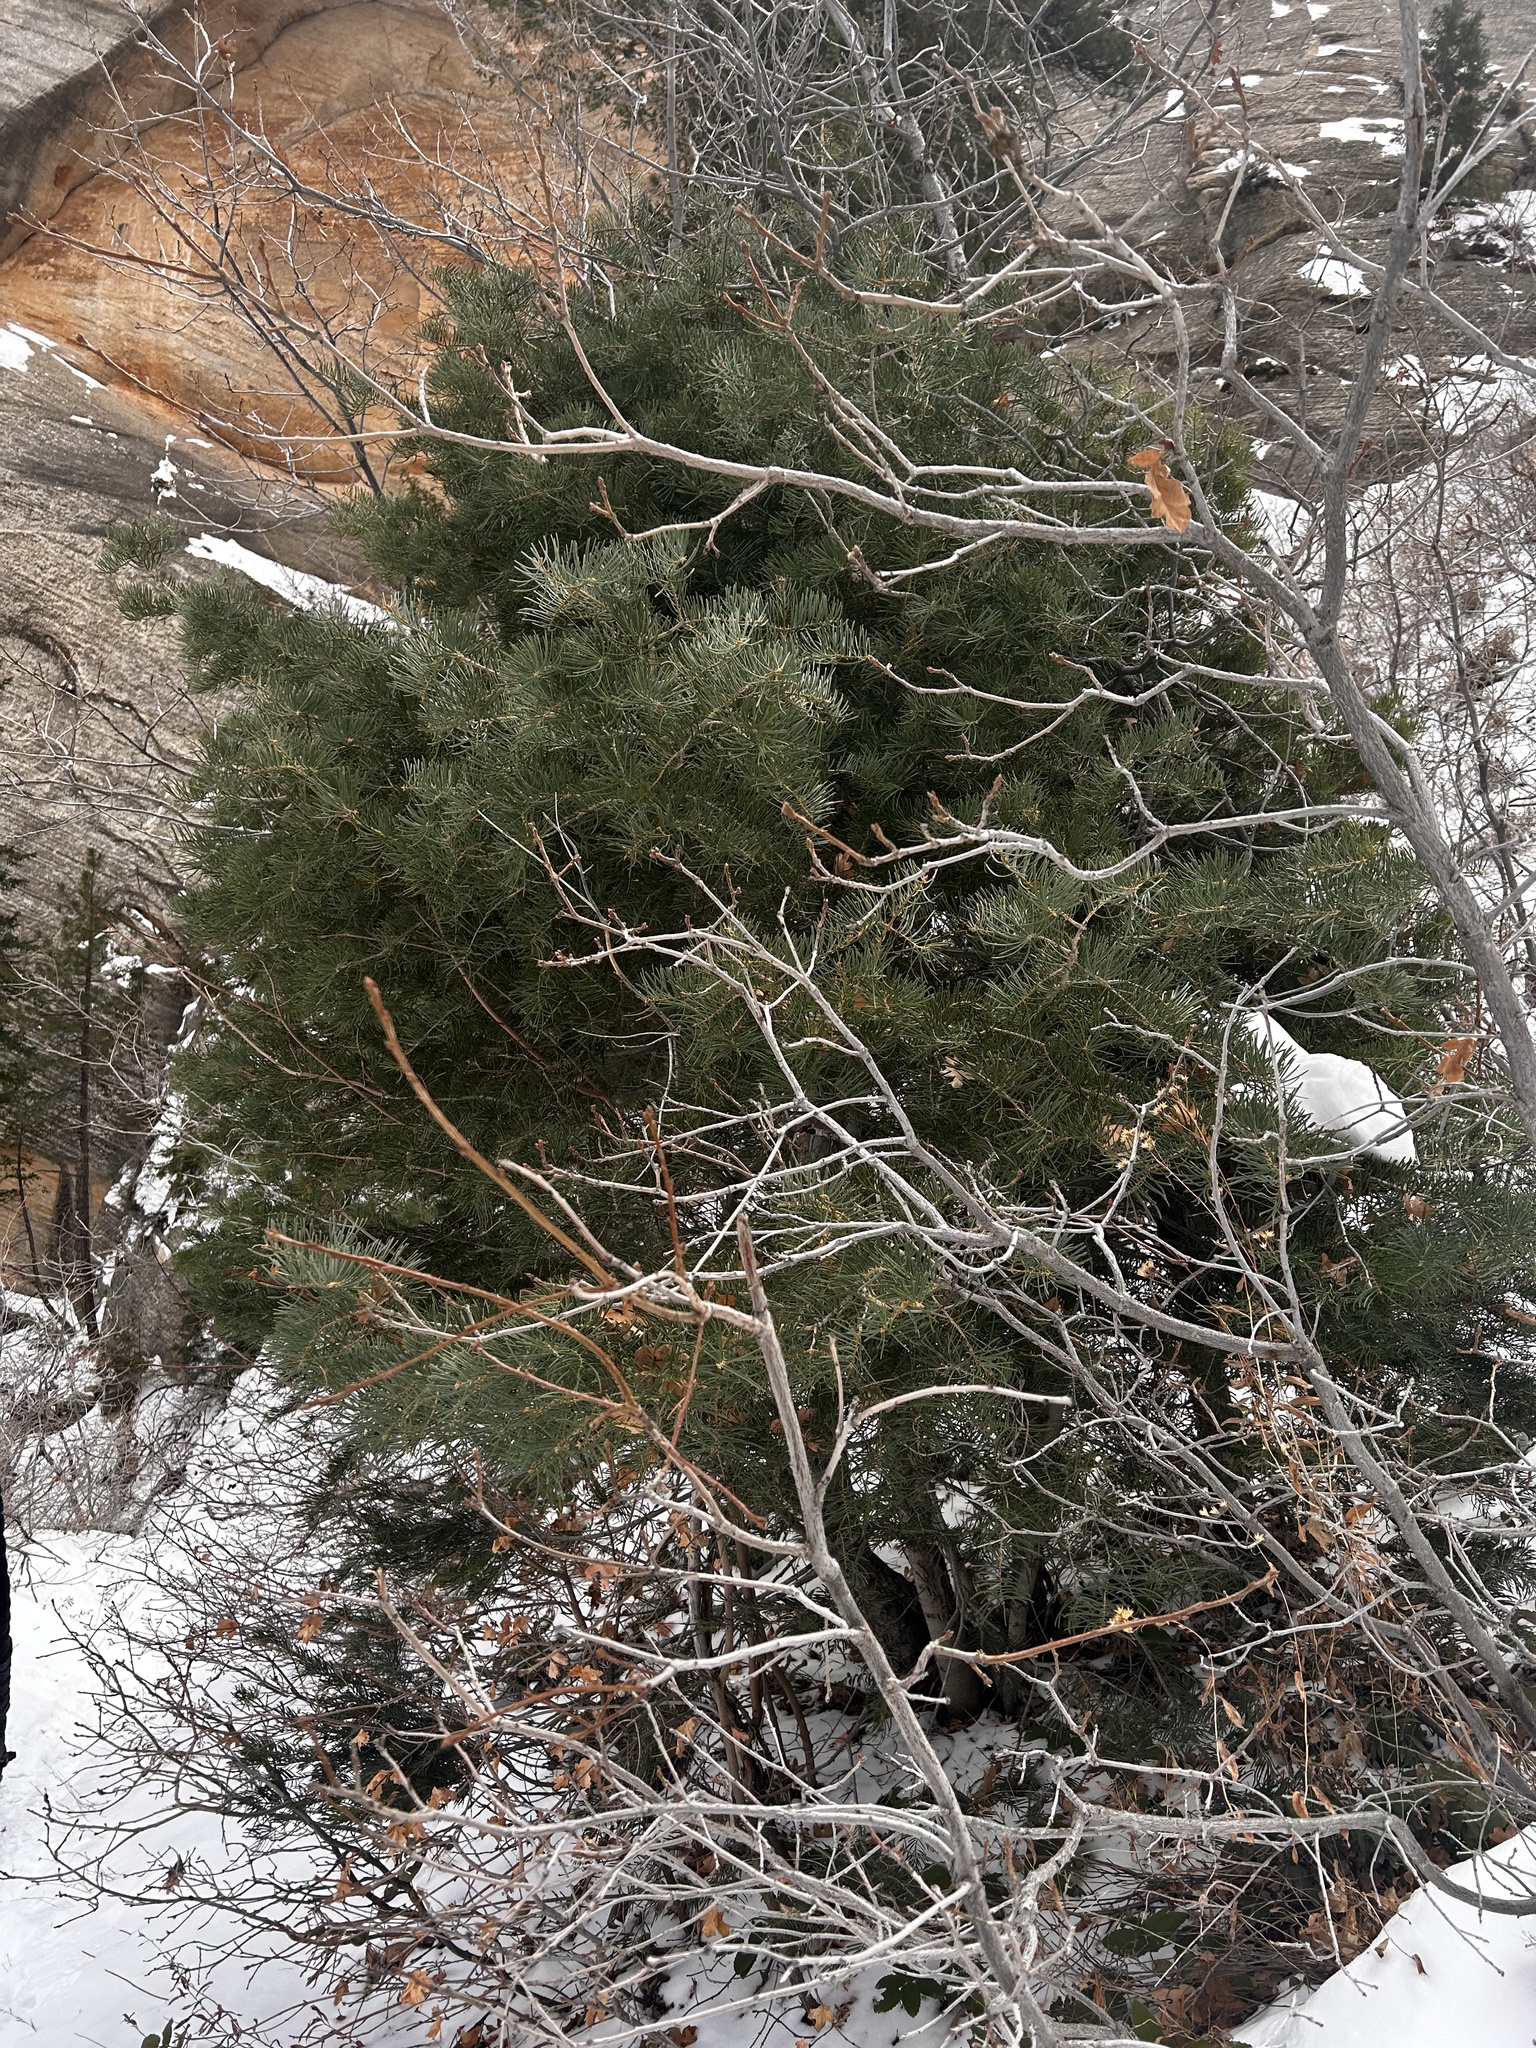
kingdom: Plantae
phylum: Tracheophyta
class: Pinopsida
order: Pinales
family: Pinaceae
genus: Abies
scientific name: Abies concolor
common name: Colorado fir
